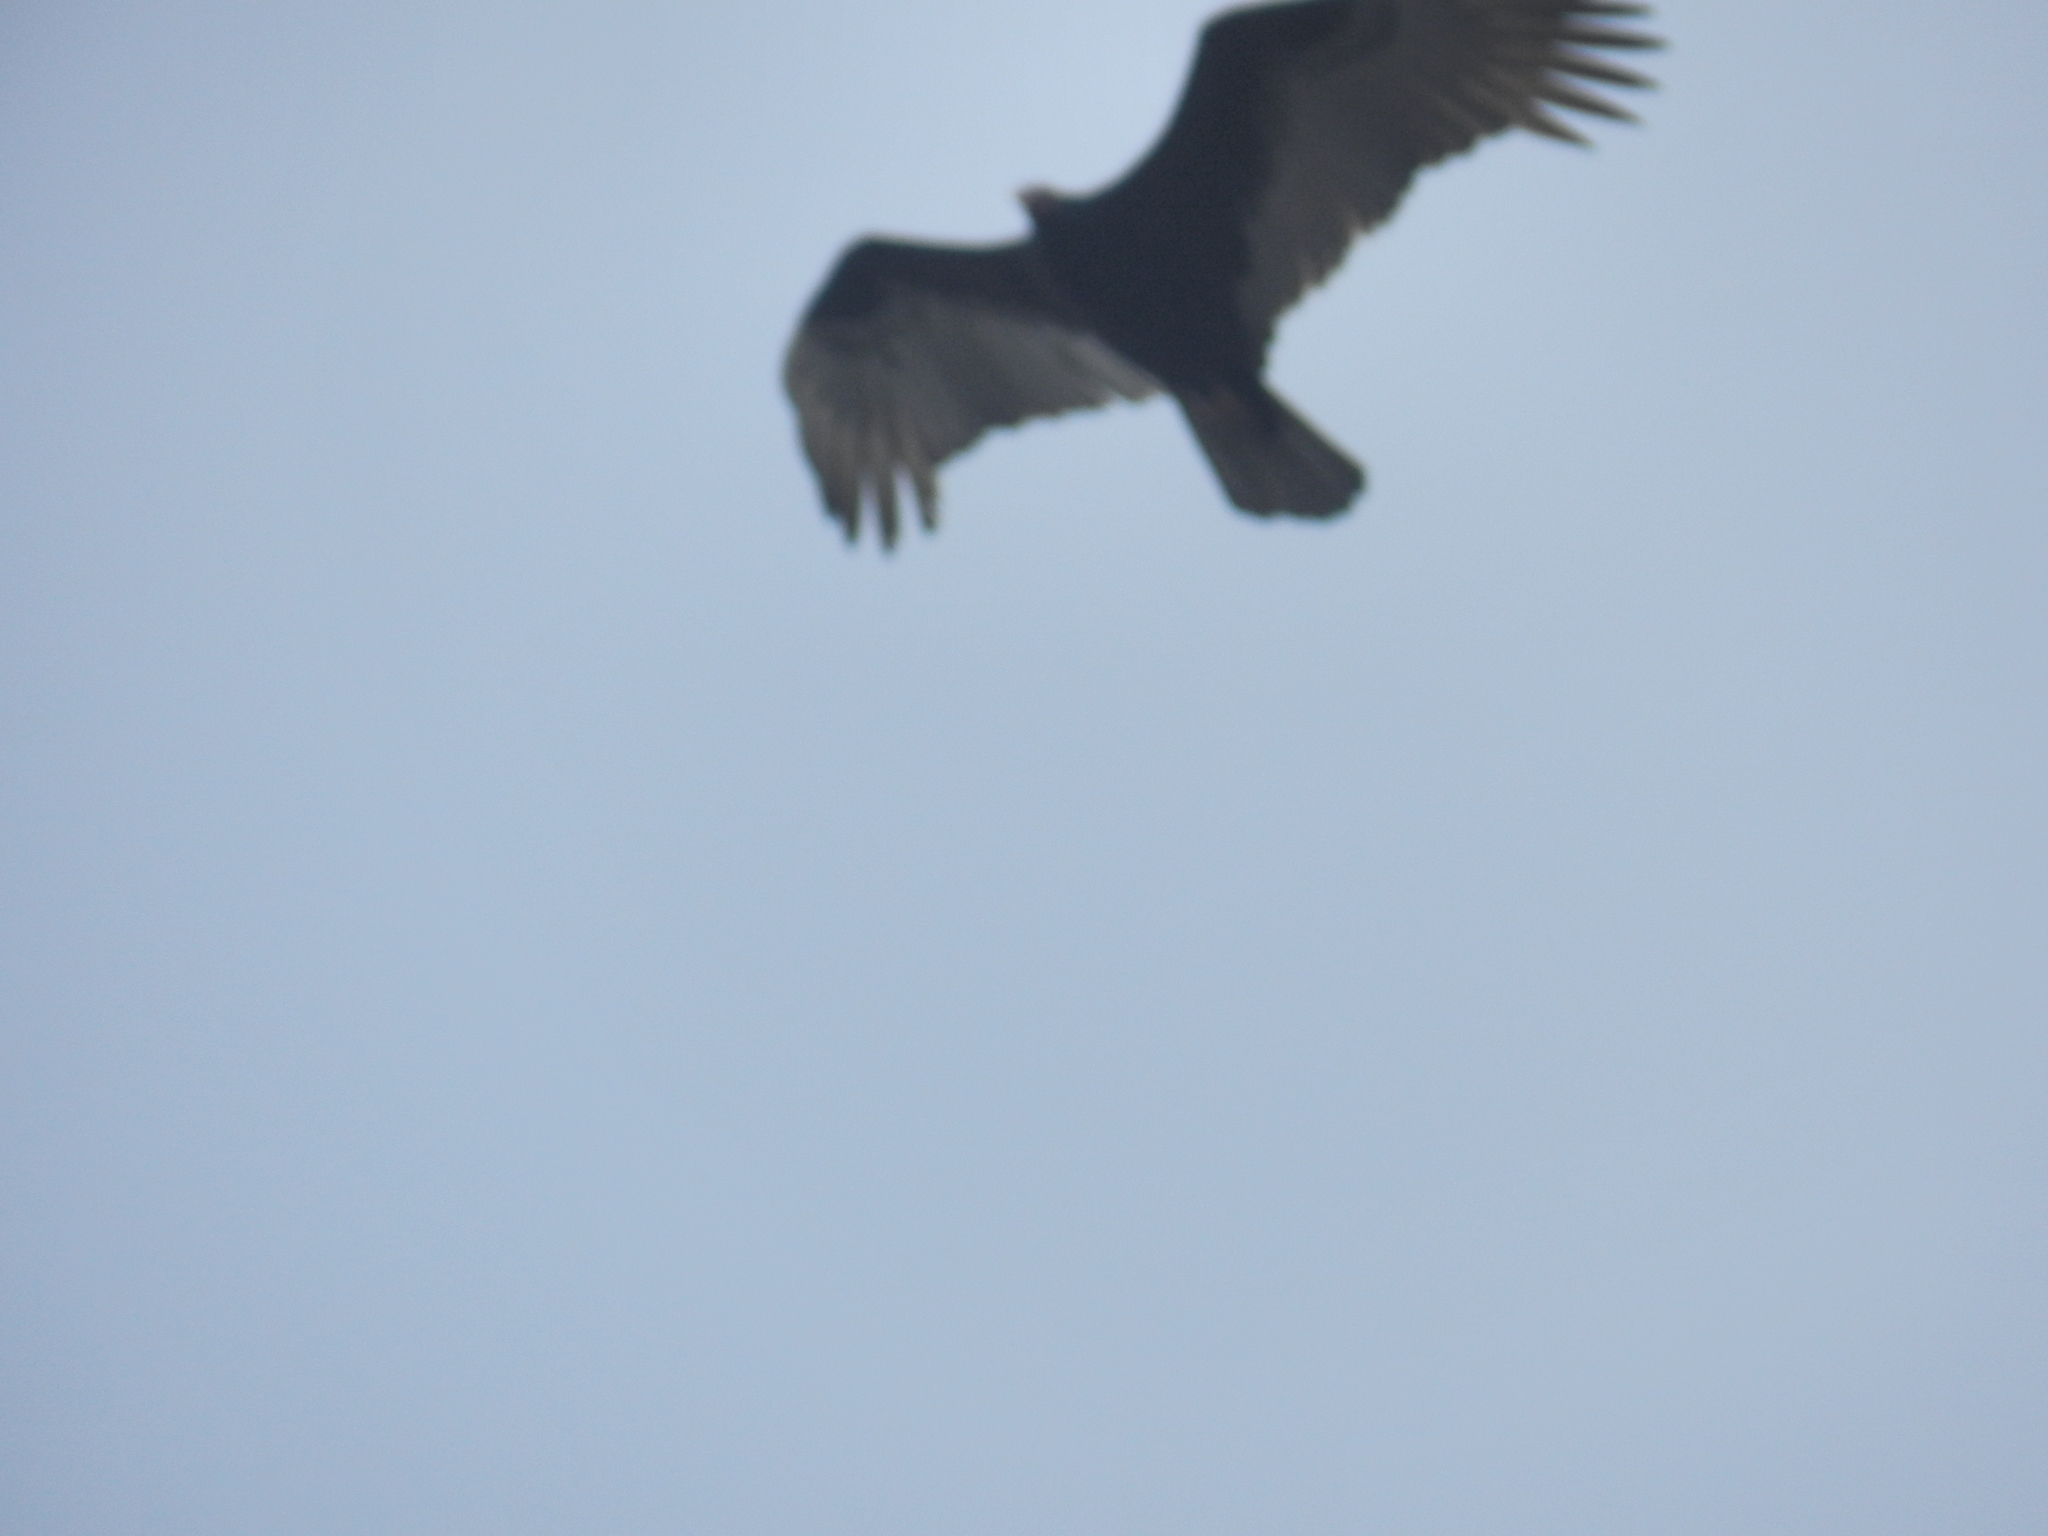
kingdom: Animalia
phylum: Chordata
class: Aves
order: Accipitriformes
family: Cathartidae
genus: Cathartes
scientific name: Cathartes aura
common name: Turkey vulture
